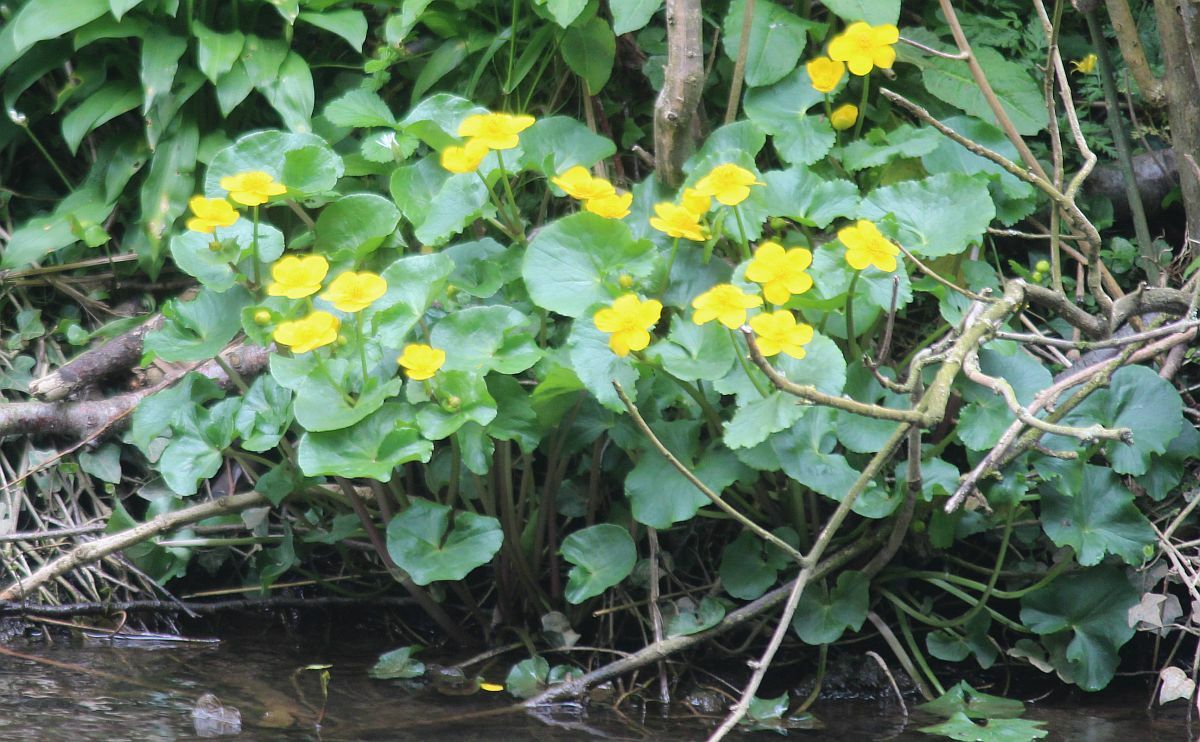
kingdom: Plantae
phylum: Tracheophyta
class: Magnoliopsida
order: Ranunculales
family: Ranunculaceae
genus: Caltha
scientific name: Caltha palustris
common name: Marsh marigold
